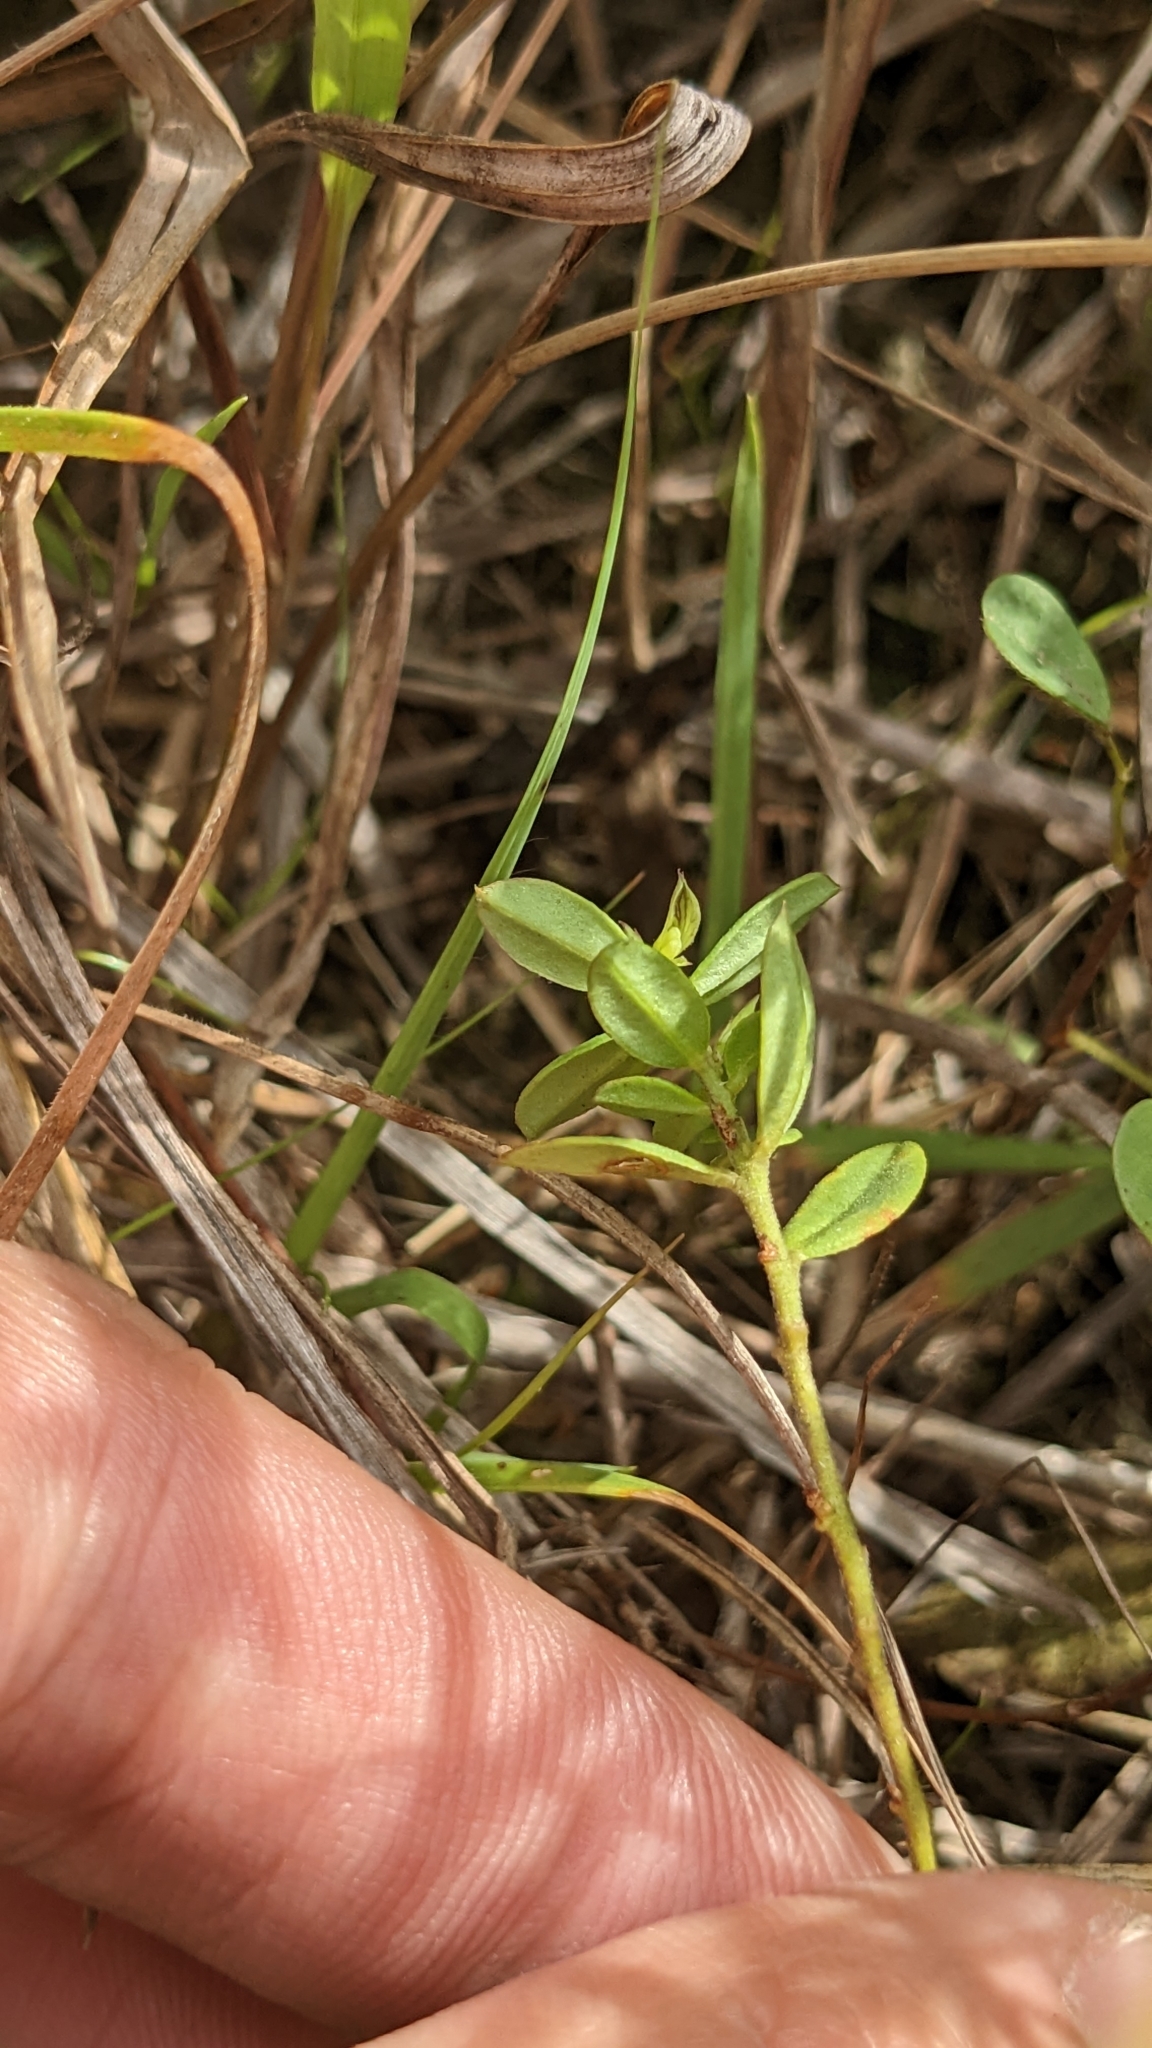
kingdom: Plantae
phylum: Tracheophyta
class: Magnoliopsida
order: Fabales
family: Polygalaceae
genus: Polygala
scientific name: Polygala arvensis
